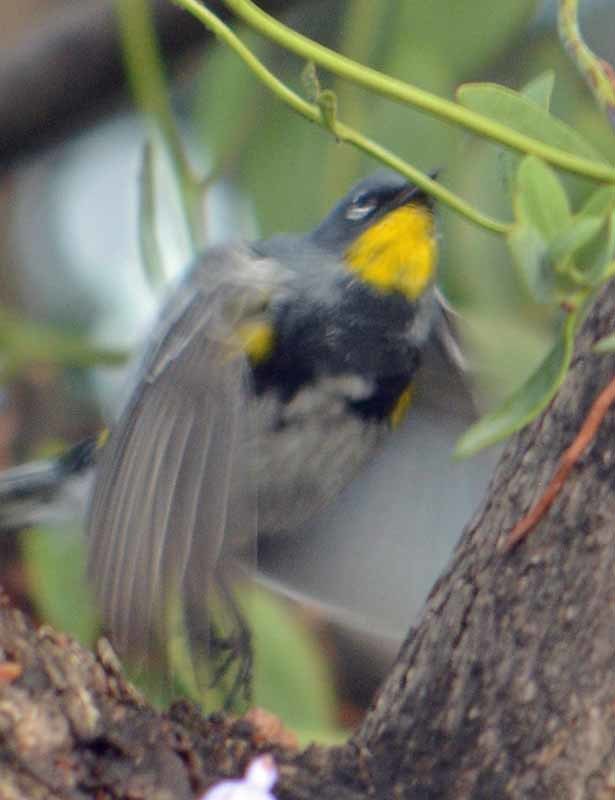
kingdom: Animalia
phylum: Chordata
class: Aves
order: Passeriformes
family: Parulidae
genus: Setophaga
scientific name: Setophaga auduboni
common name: Audubon's warbler
